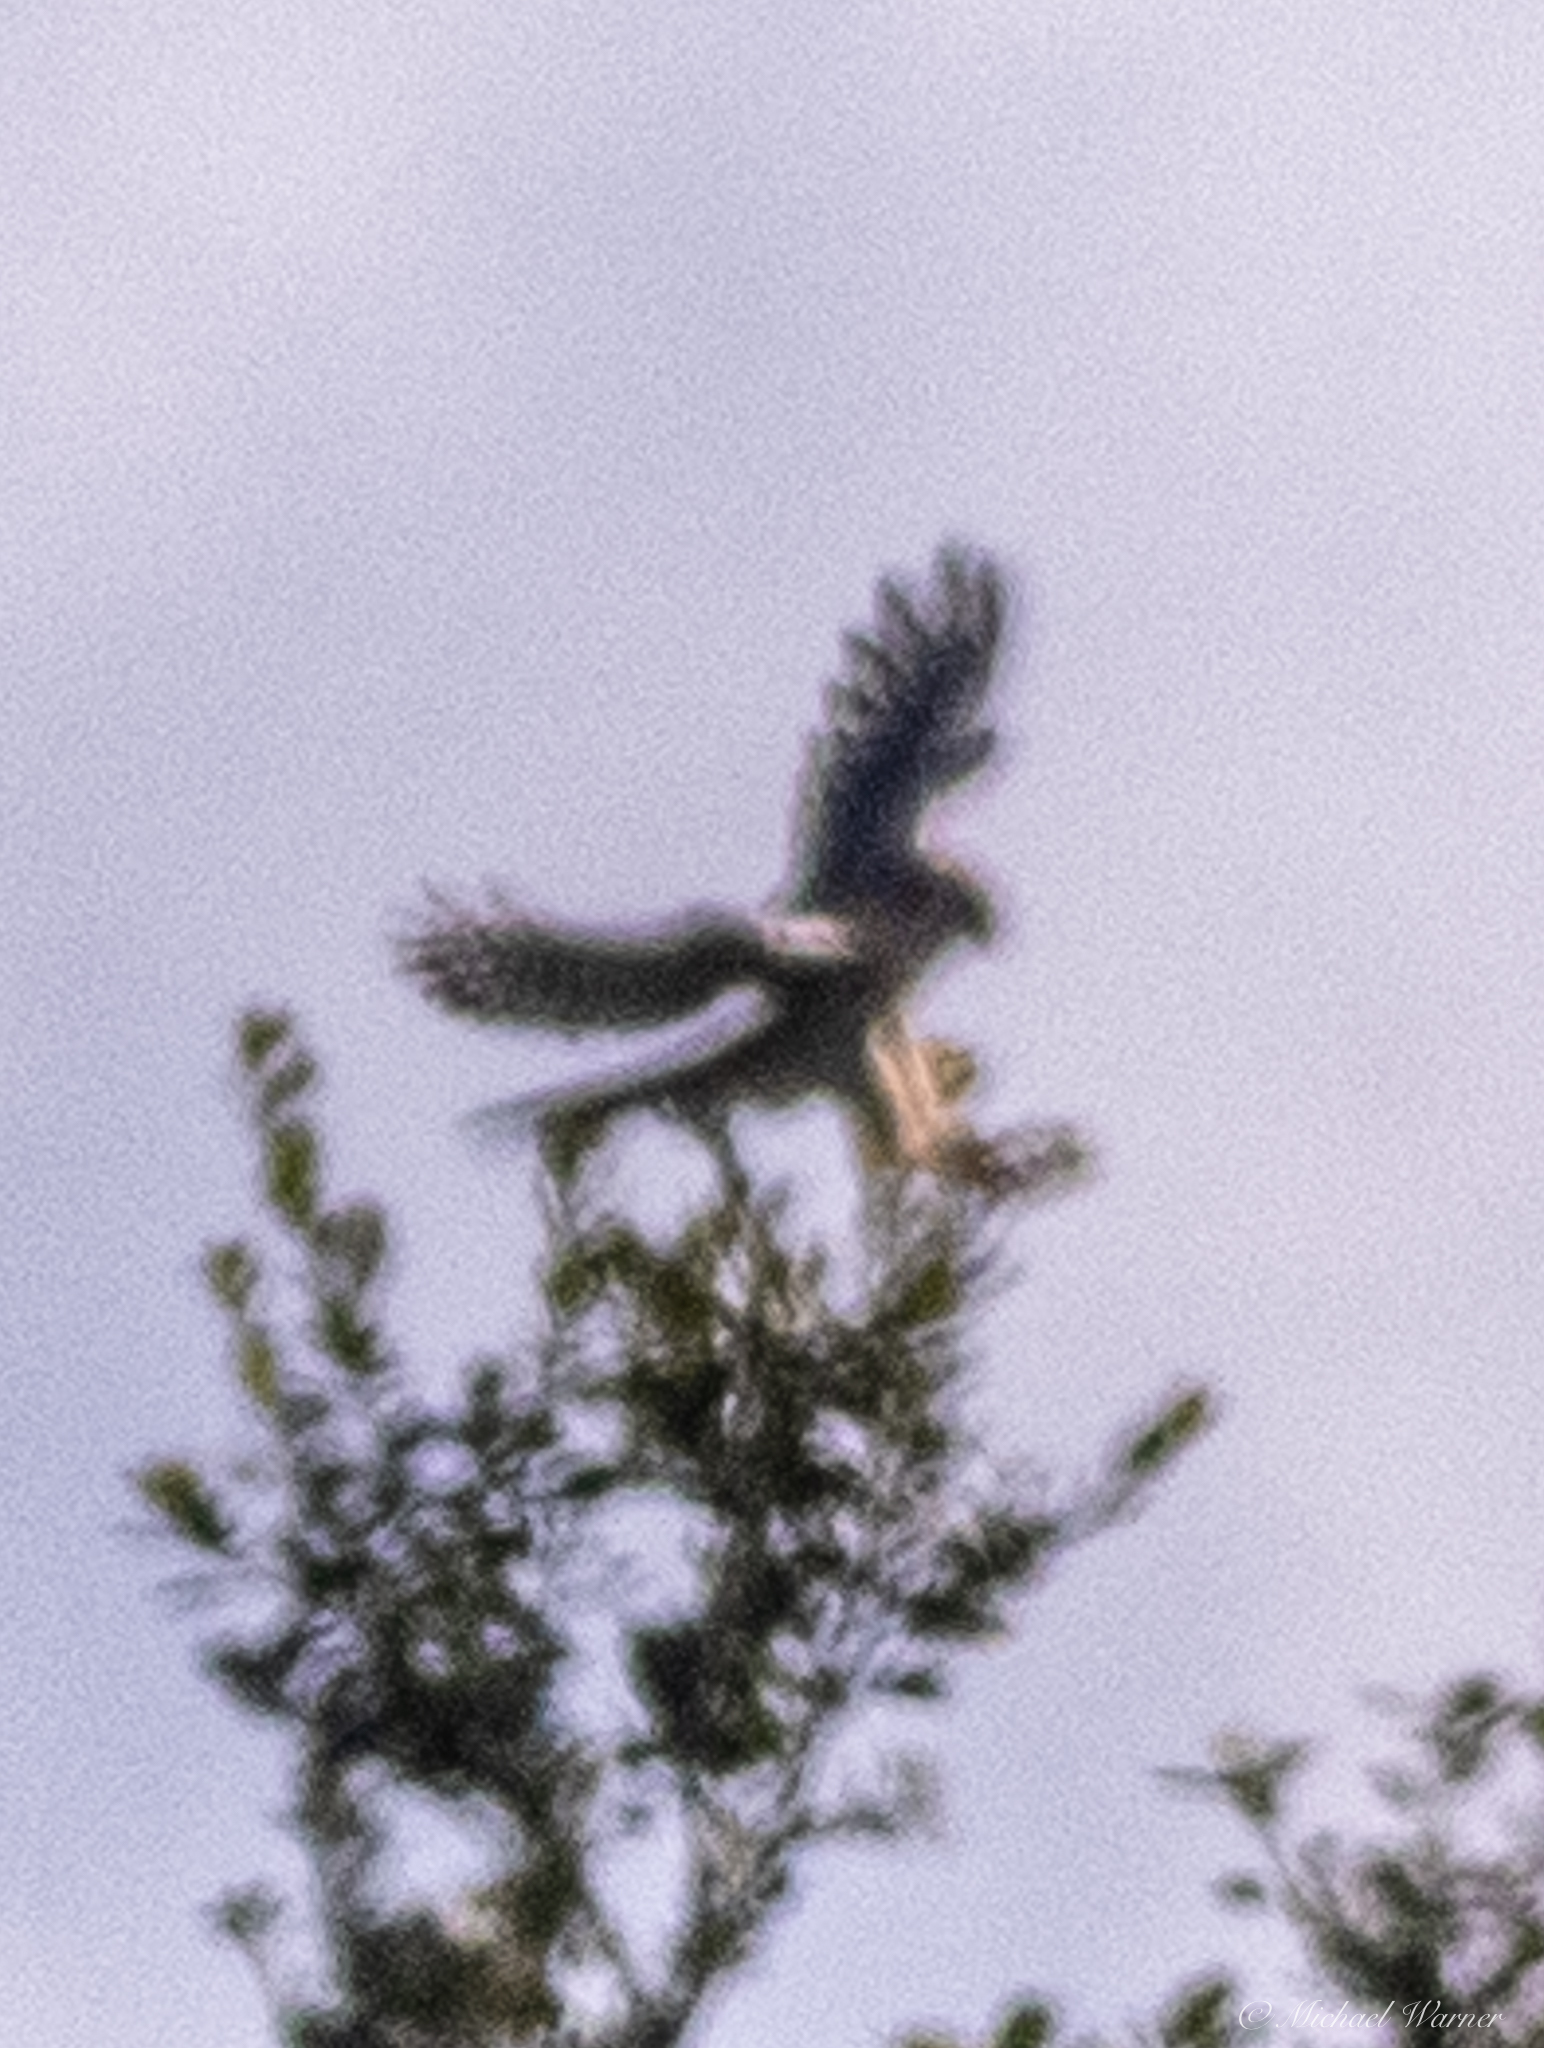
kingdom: Animalia
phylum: Chordata
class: Aves
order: Falconiformes
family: Falconidae
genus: Falco
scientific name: Falco sparverius
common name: American kestrel
